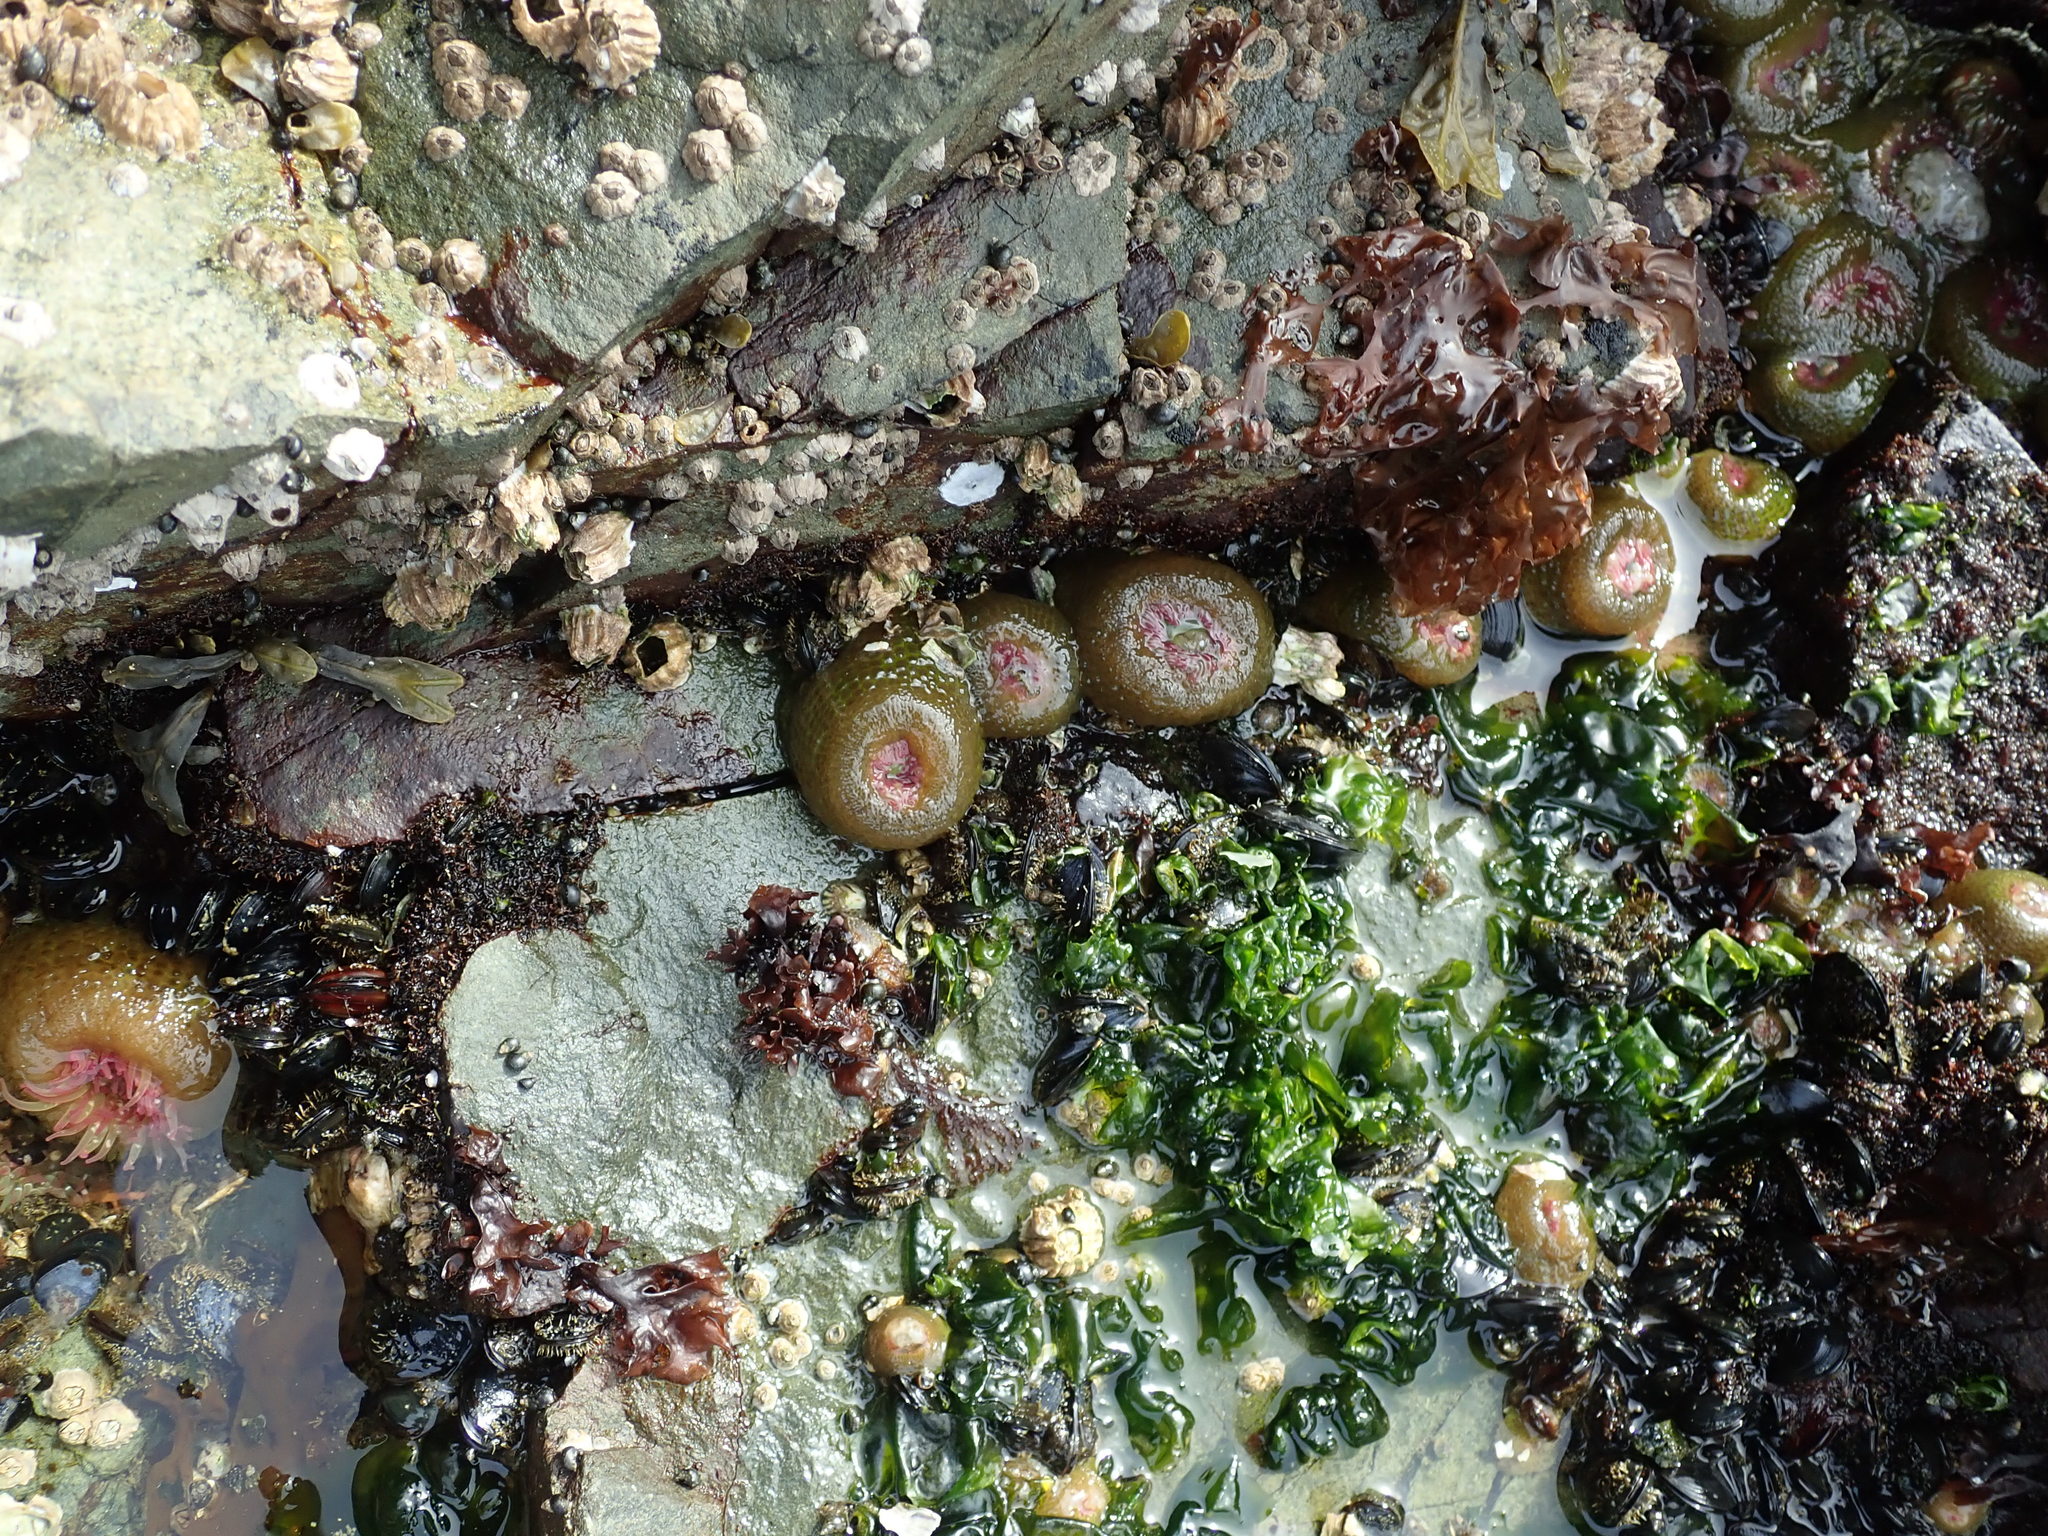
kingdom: Animalia
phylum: Cnidaria
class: Anthozoa
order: Actiniaria
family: Actiniidae
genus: Anthopleura
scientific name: Anthopleura elegantissima
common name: Clonal anemone
